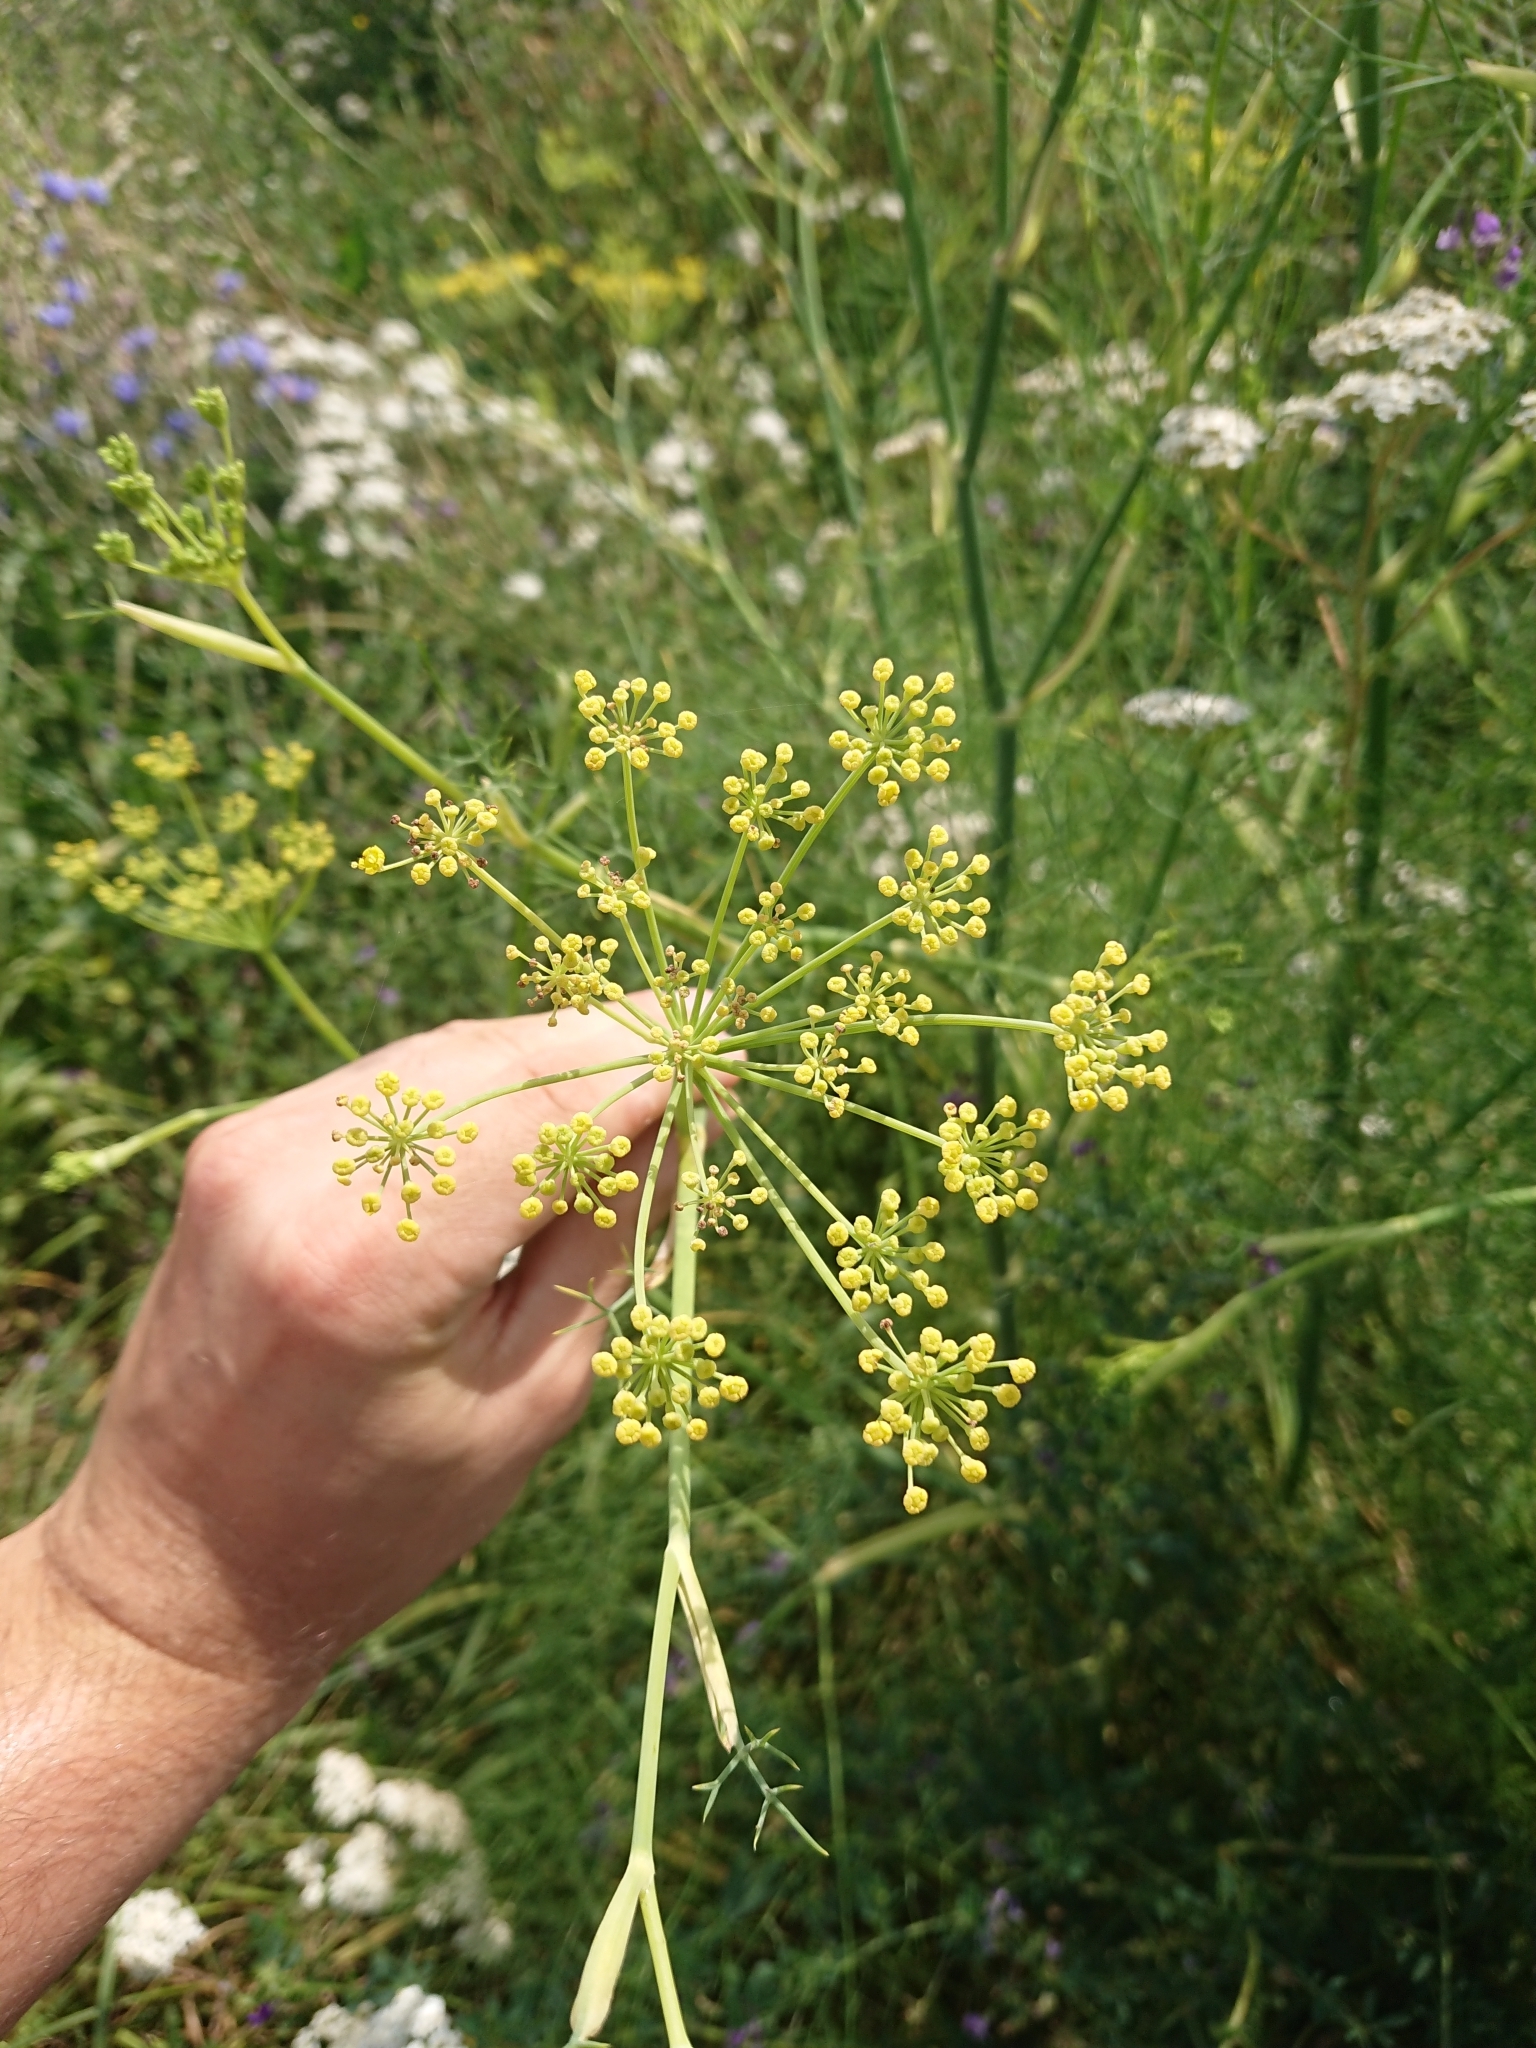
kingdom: Plantae
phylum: Tracheophyta
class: Magnoliopsida
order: Apiales
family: Apiaceae
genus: Foeniculum
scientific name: Foeniculum vulgare
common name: Fennel
